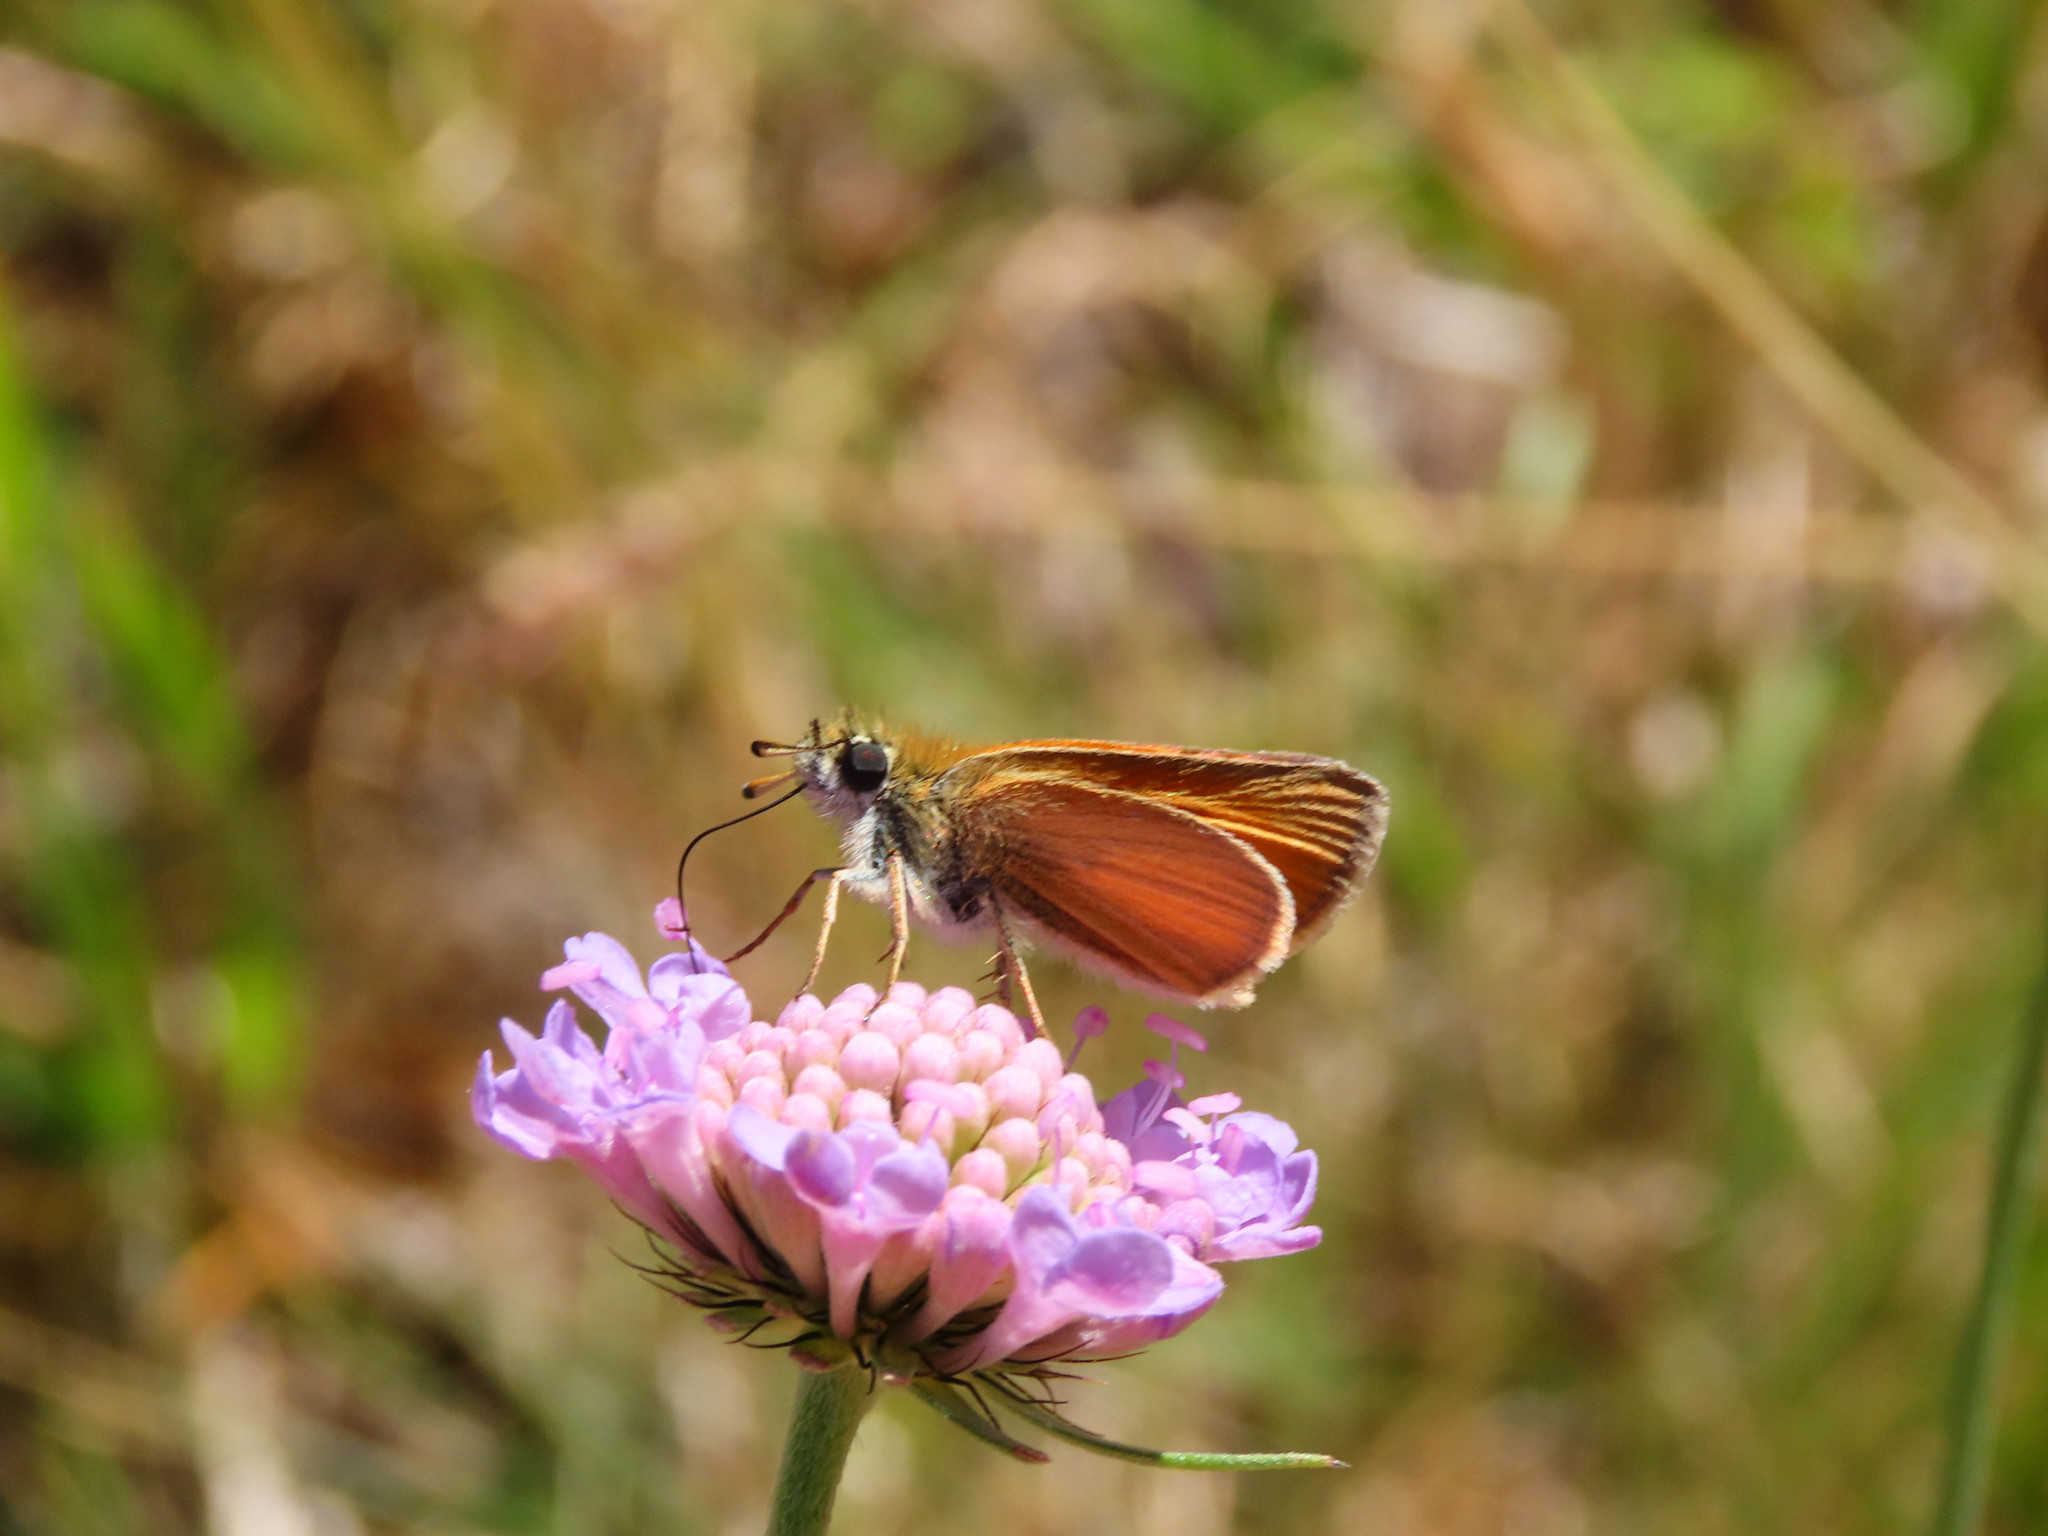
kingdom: Animalia
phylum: Arthropoda
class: Insecta
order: Lepidoptera
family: Hesperiidae
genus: Thymelicus
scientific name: Thymelicus lineola
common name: Essex skipper
